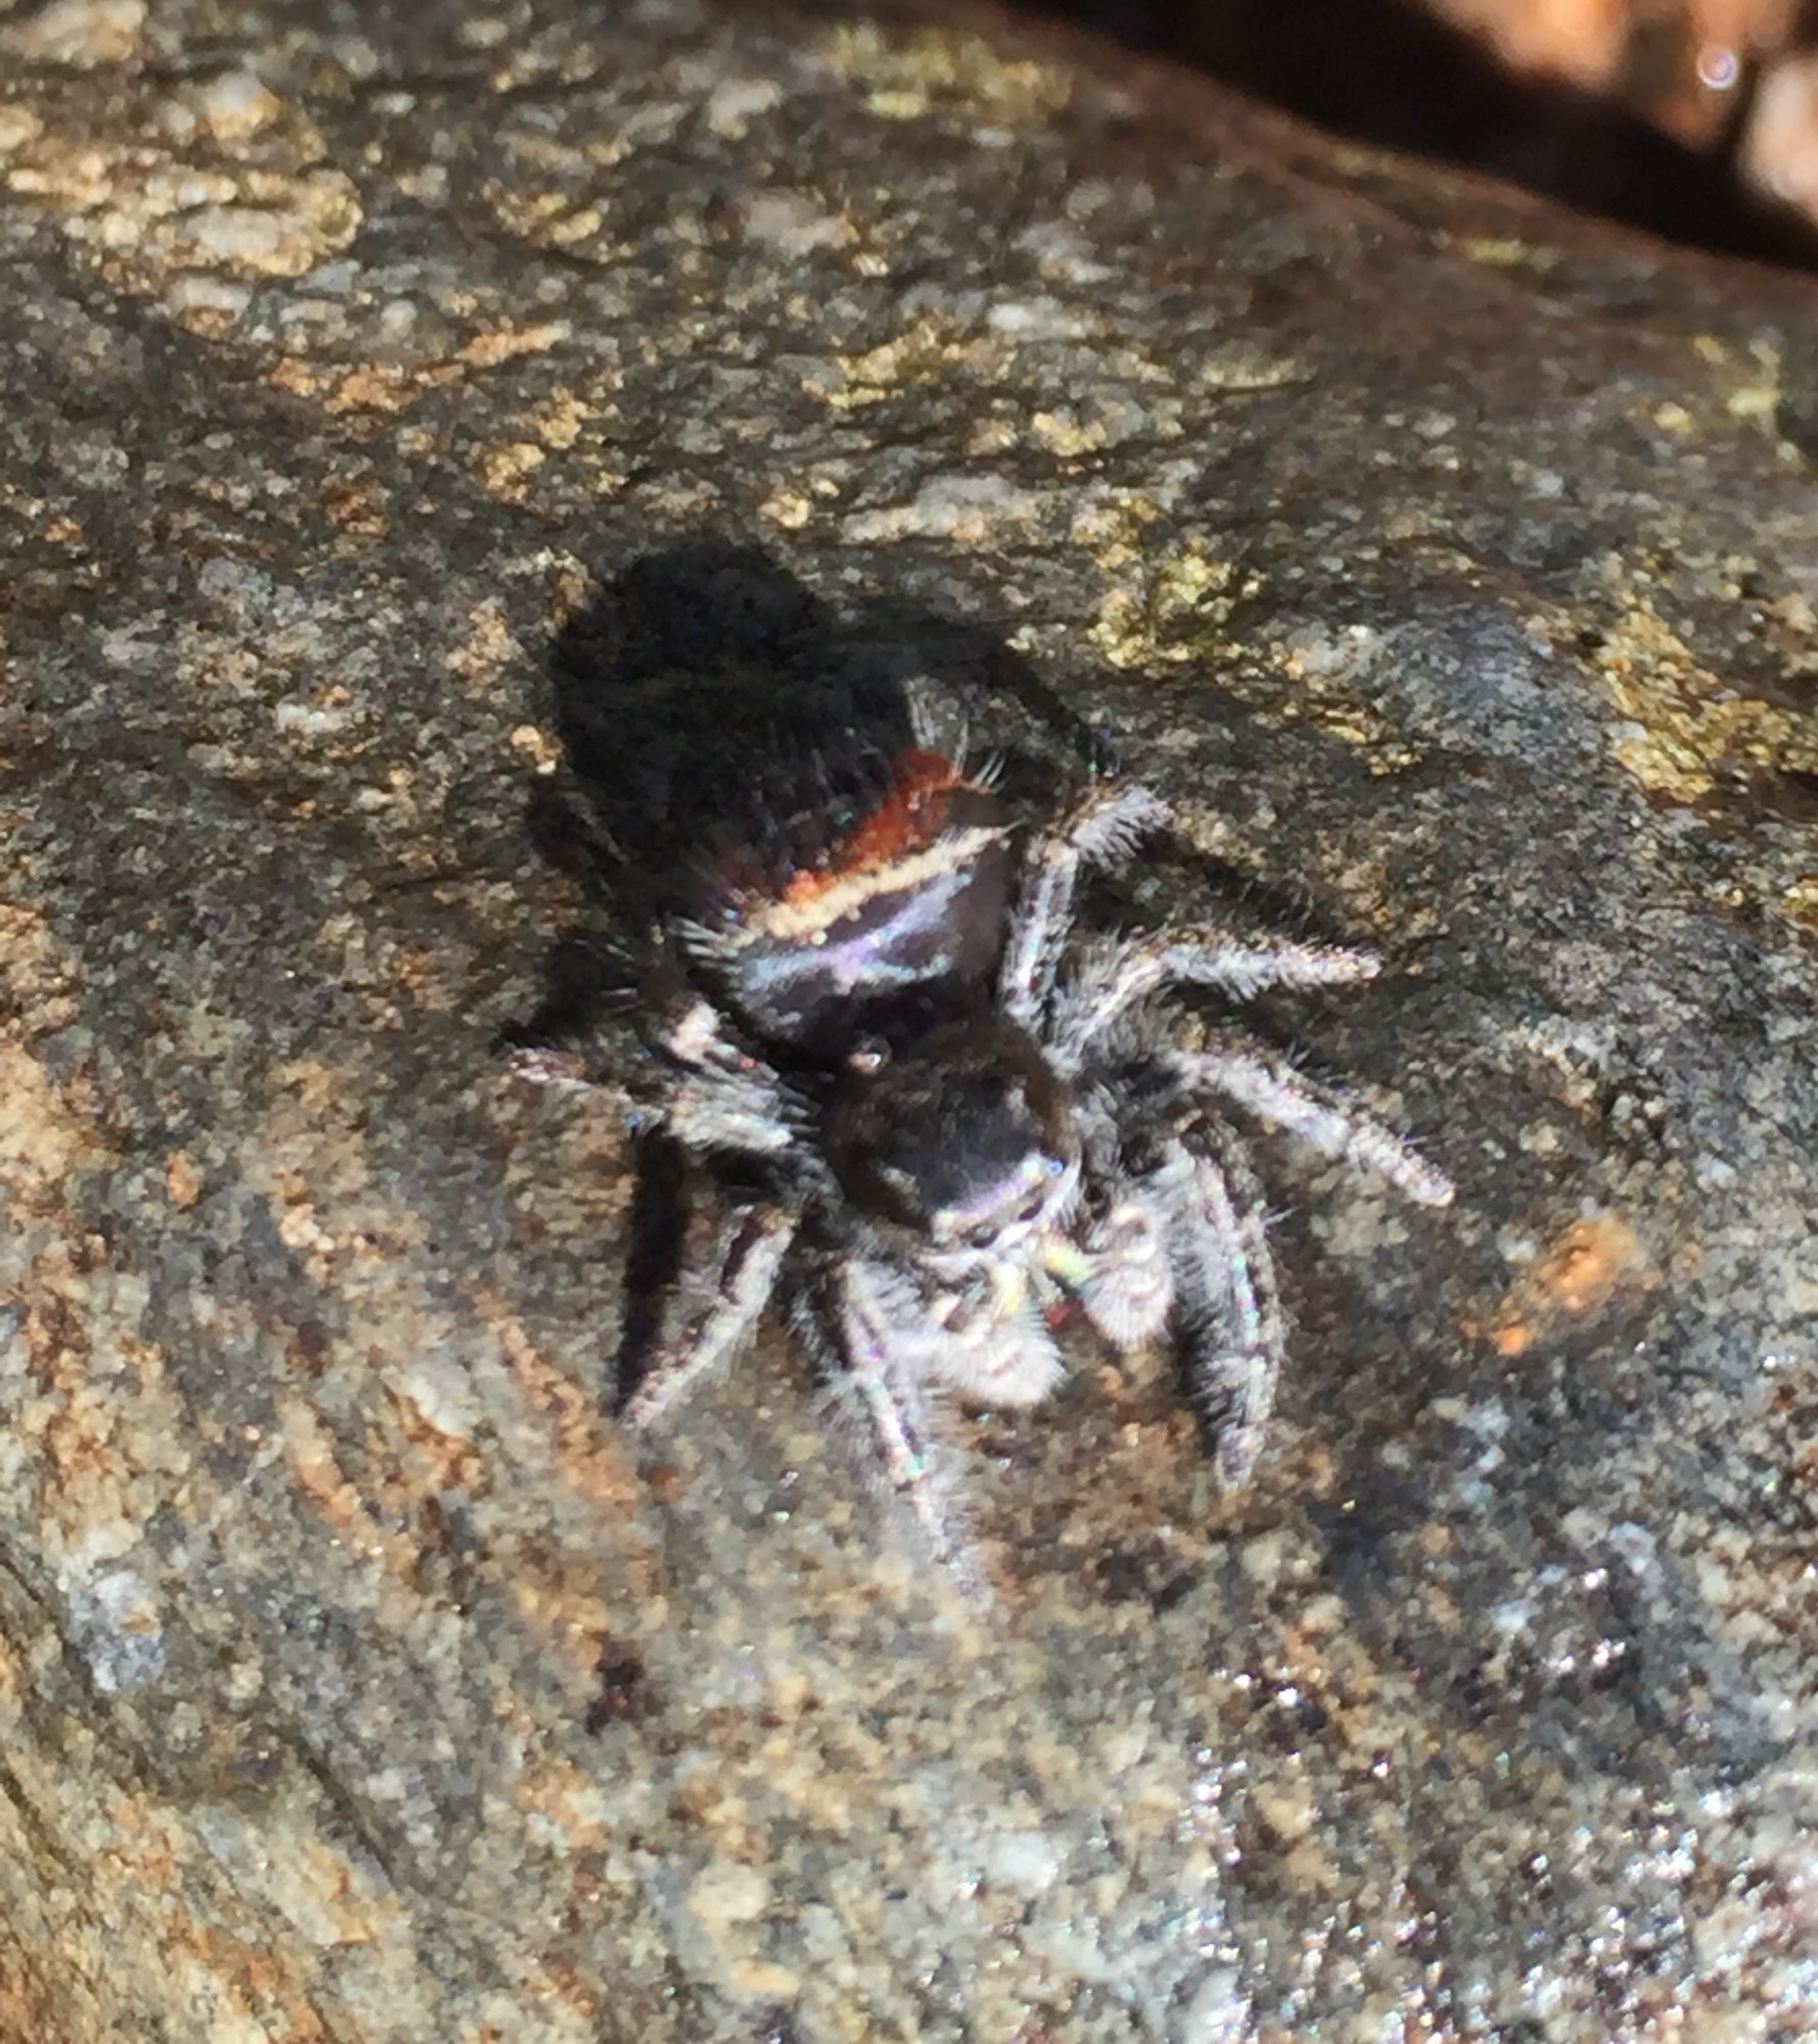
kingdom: Animalia
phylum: Arthropoda
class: Arachnida
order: Araneae
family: Salticidae
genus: Phidippus
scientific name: Phidippus johnsoni
